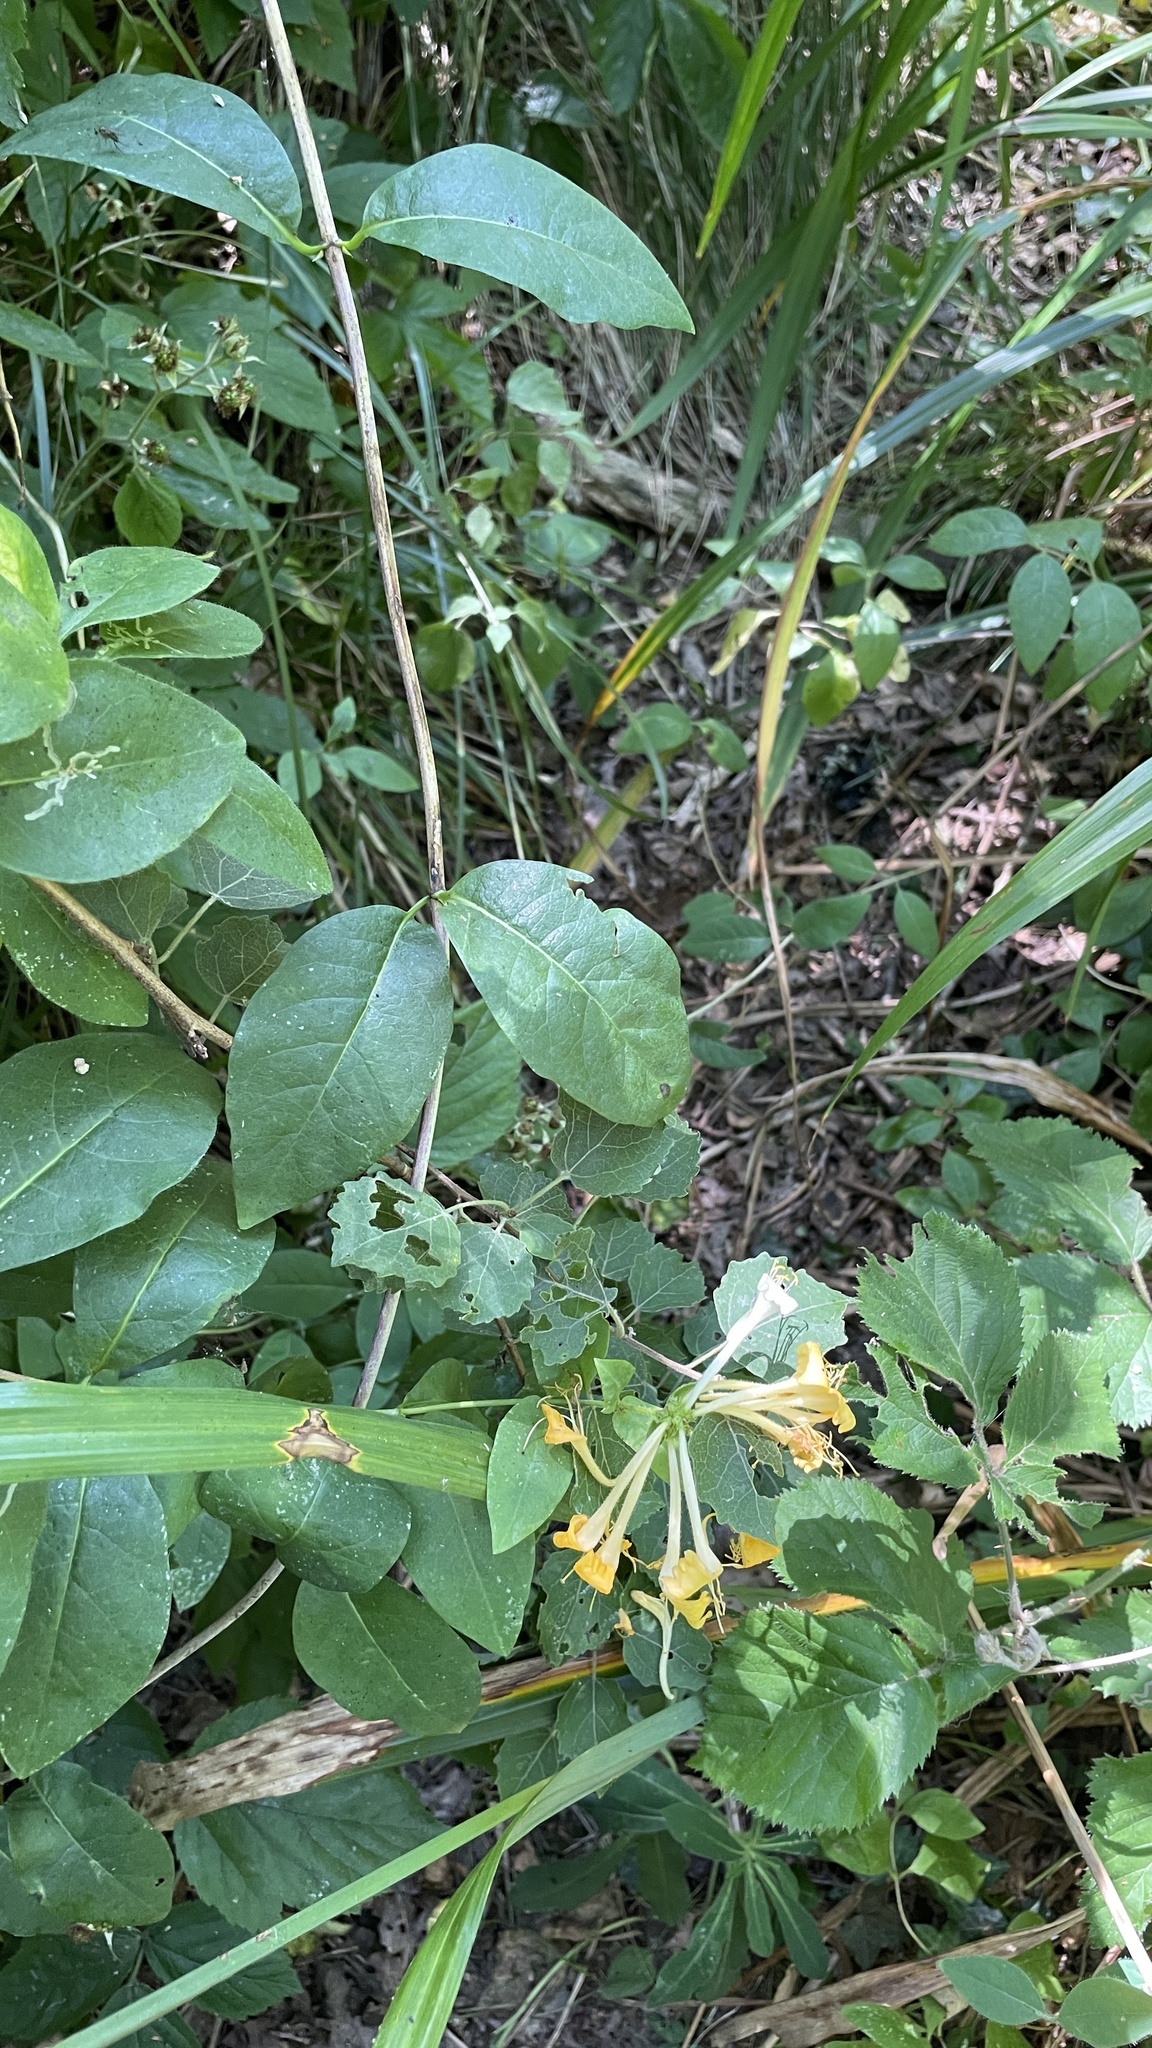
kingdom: Plantae
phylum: Tracheophyta
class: Magnoliopsida
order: Dipsacales
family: Caprifoliaceae
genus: Lonicera
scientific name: Lonicera periclymenum
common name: European honeysuckle
